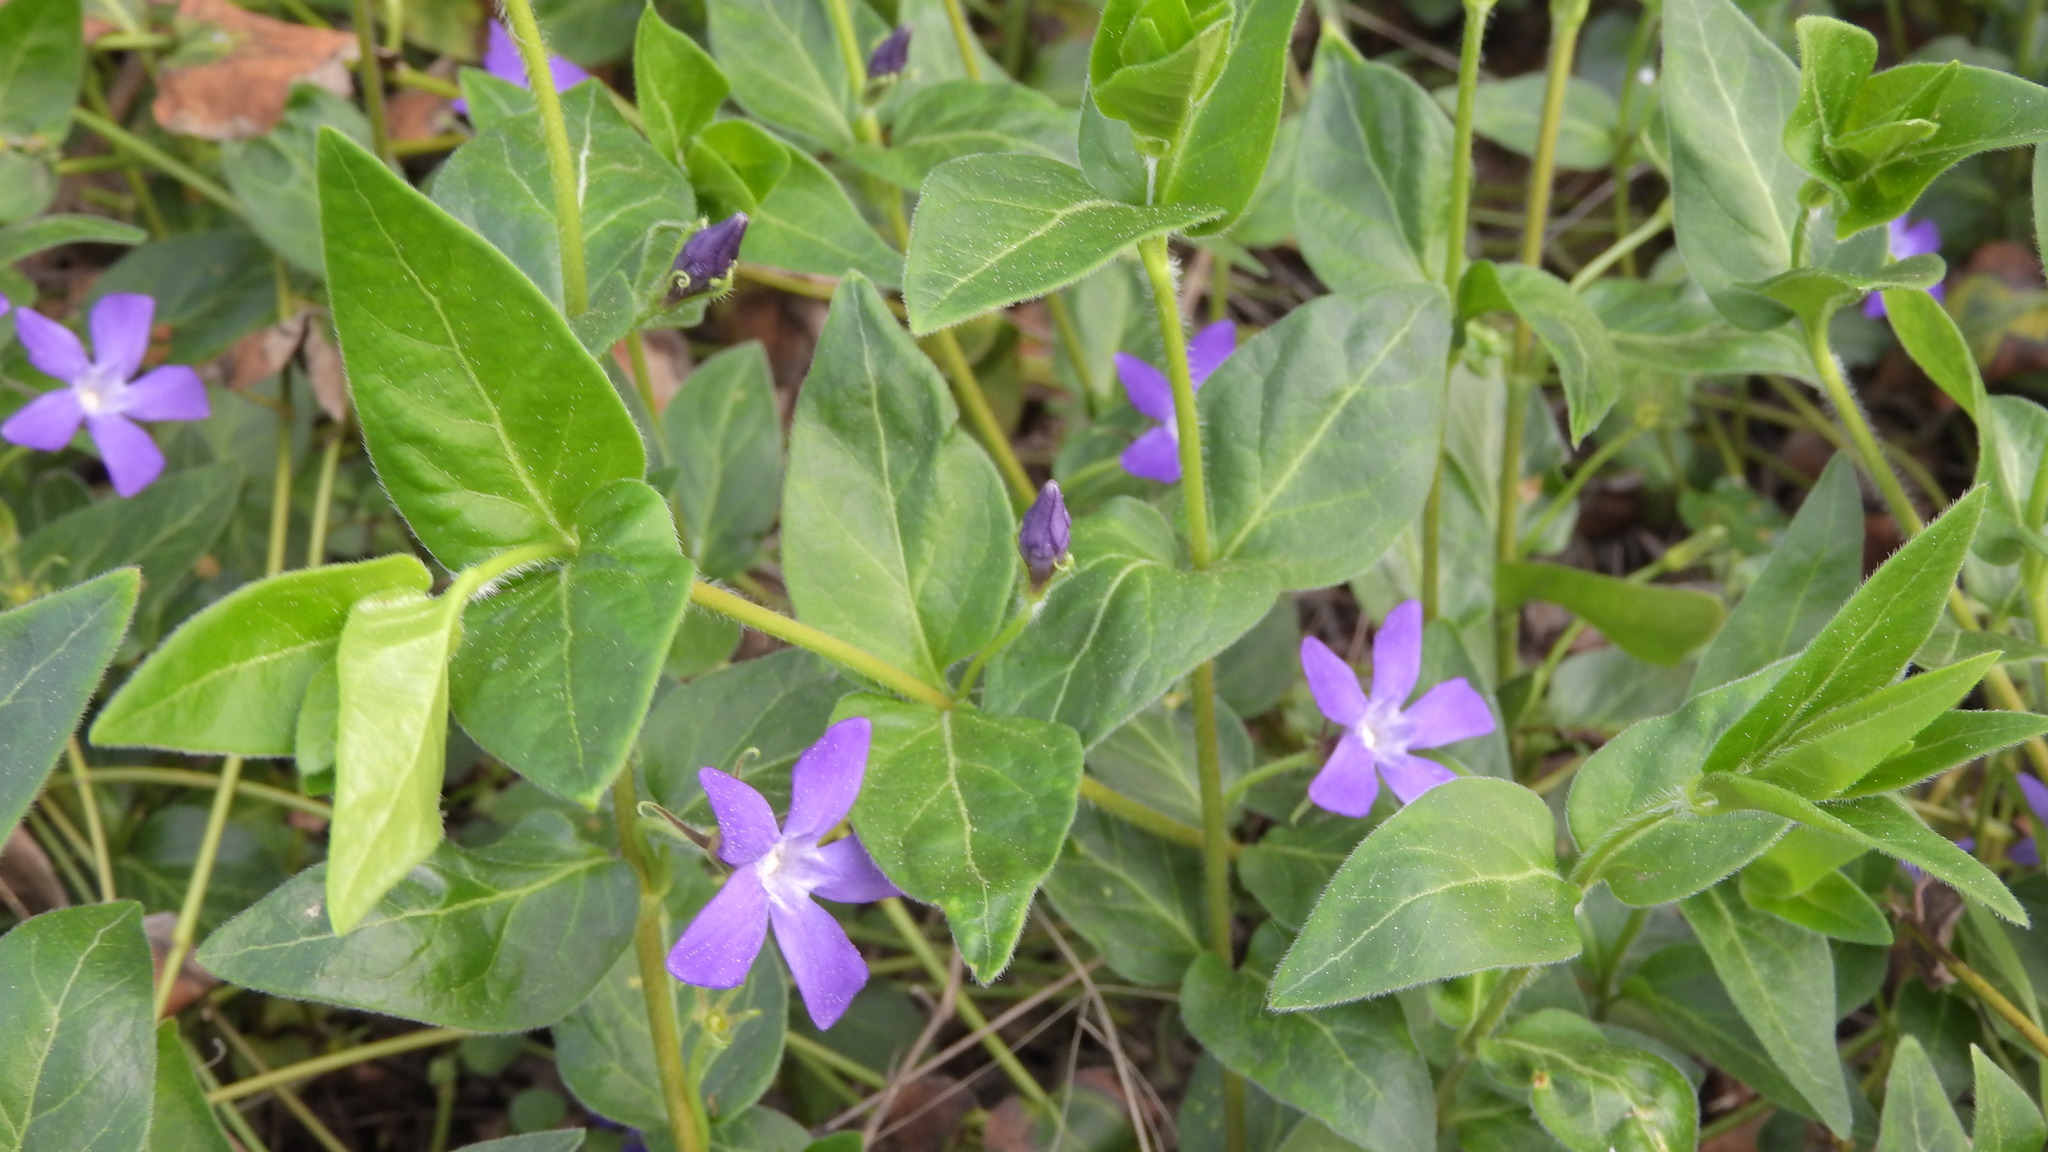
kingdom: Plantae
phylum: Tracheophyta
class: Magnoliopsida
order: Gentianales
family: Apocynaceae
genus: Vinca
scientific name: Vinca major
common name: Greater periwinkle
